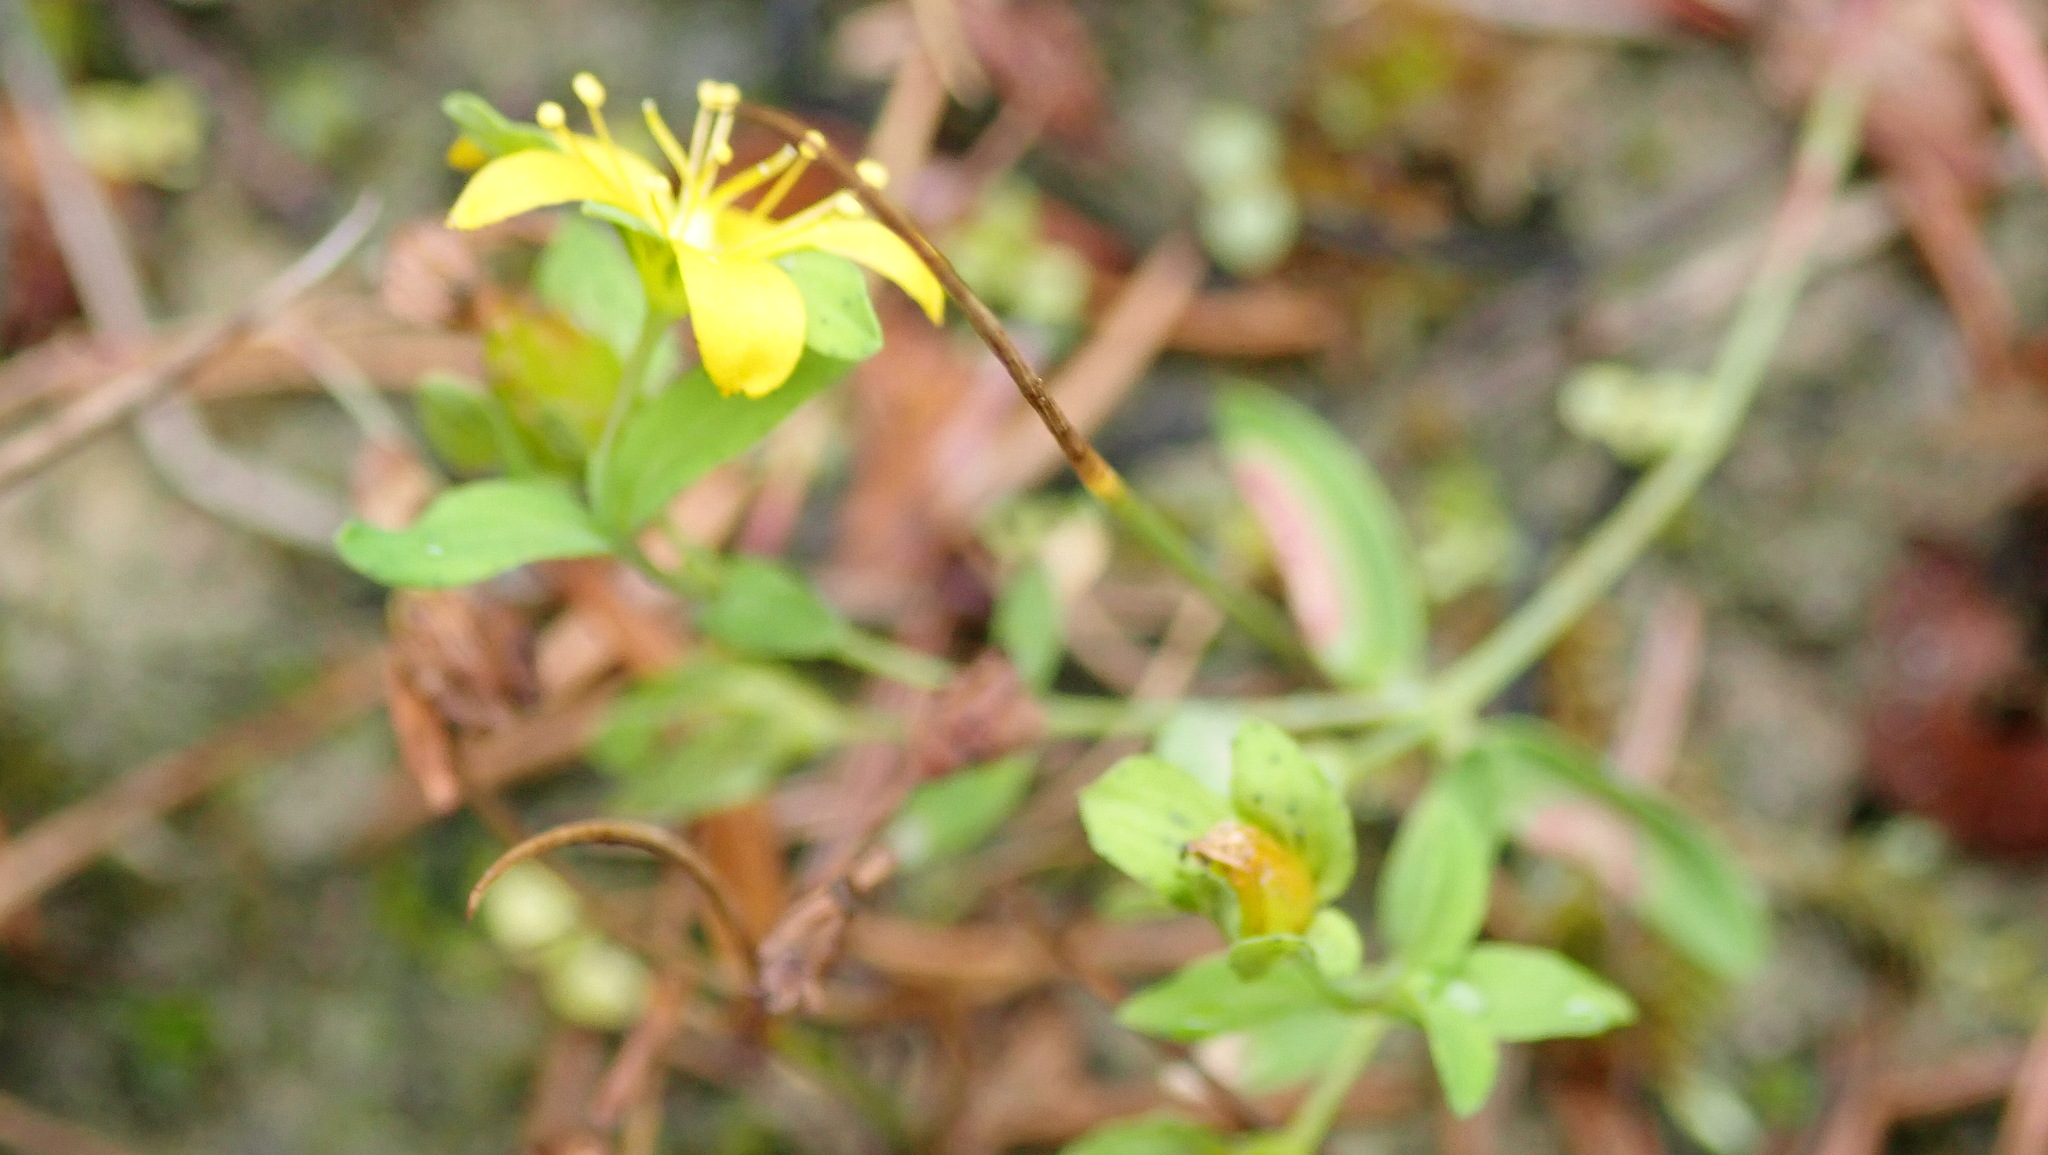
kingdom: Plantae
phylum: Tracheophyta
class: Magnoliopsida
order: Malpighiales
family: Hypericaceae
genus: Hypericum
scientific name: Hypericum humifusum
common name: Trailing st. john's-wort
